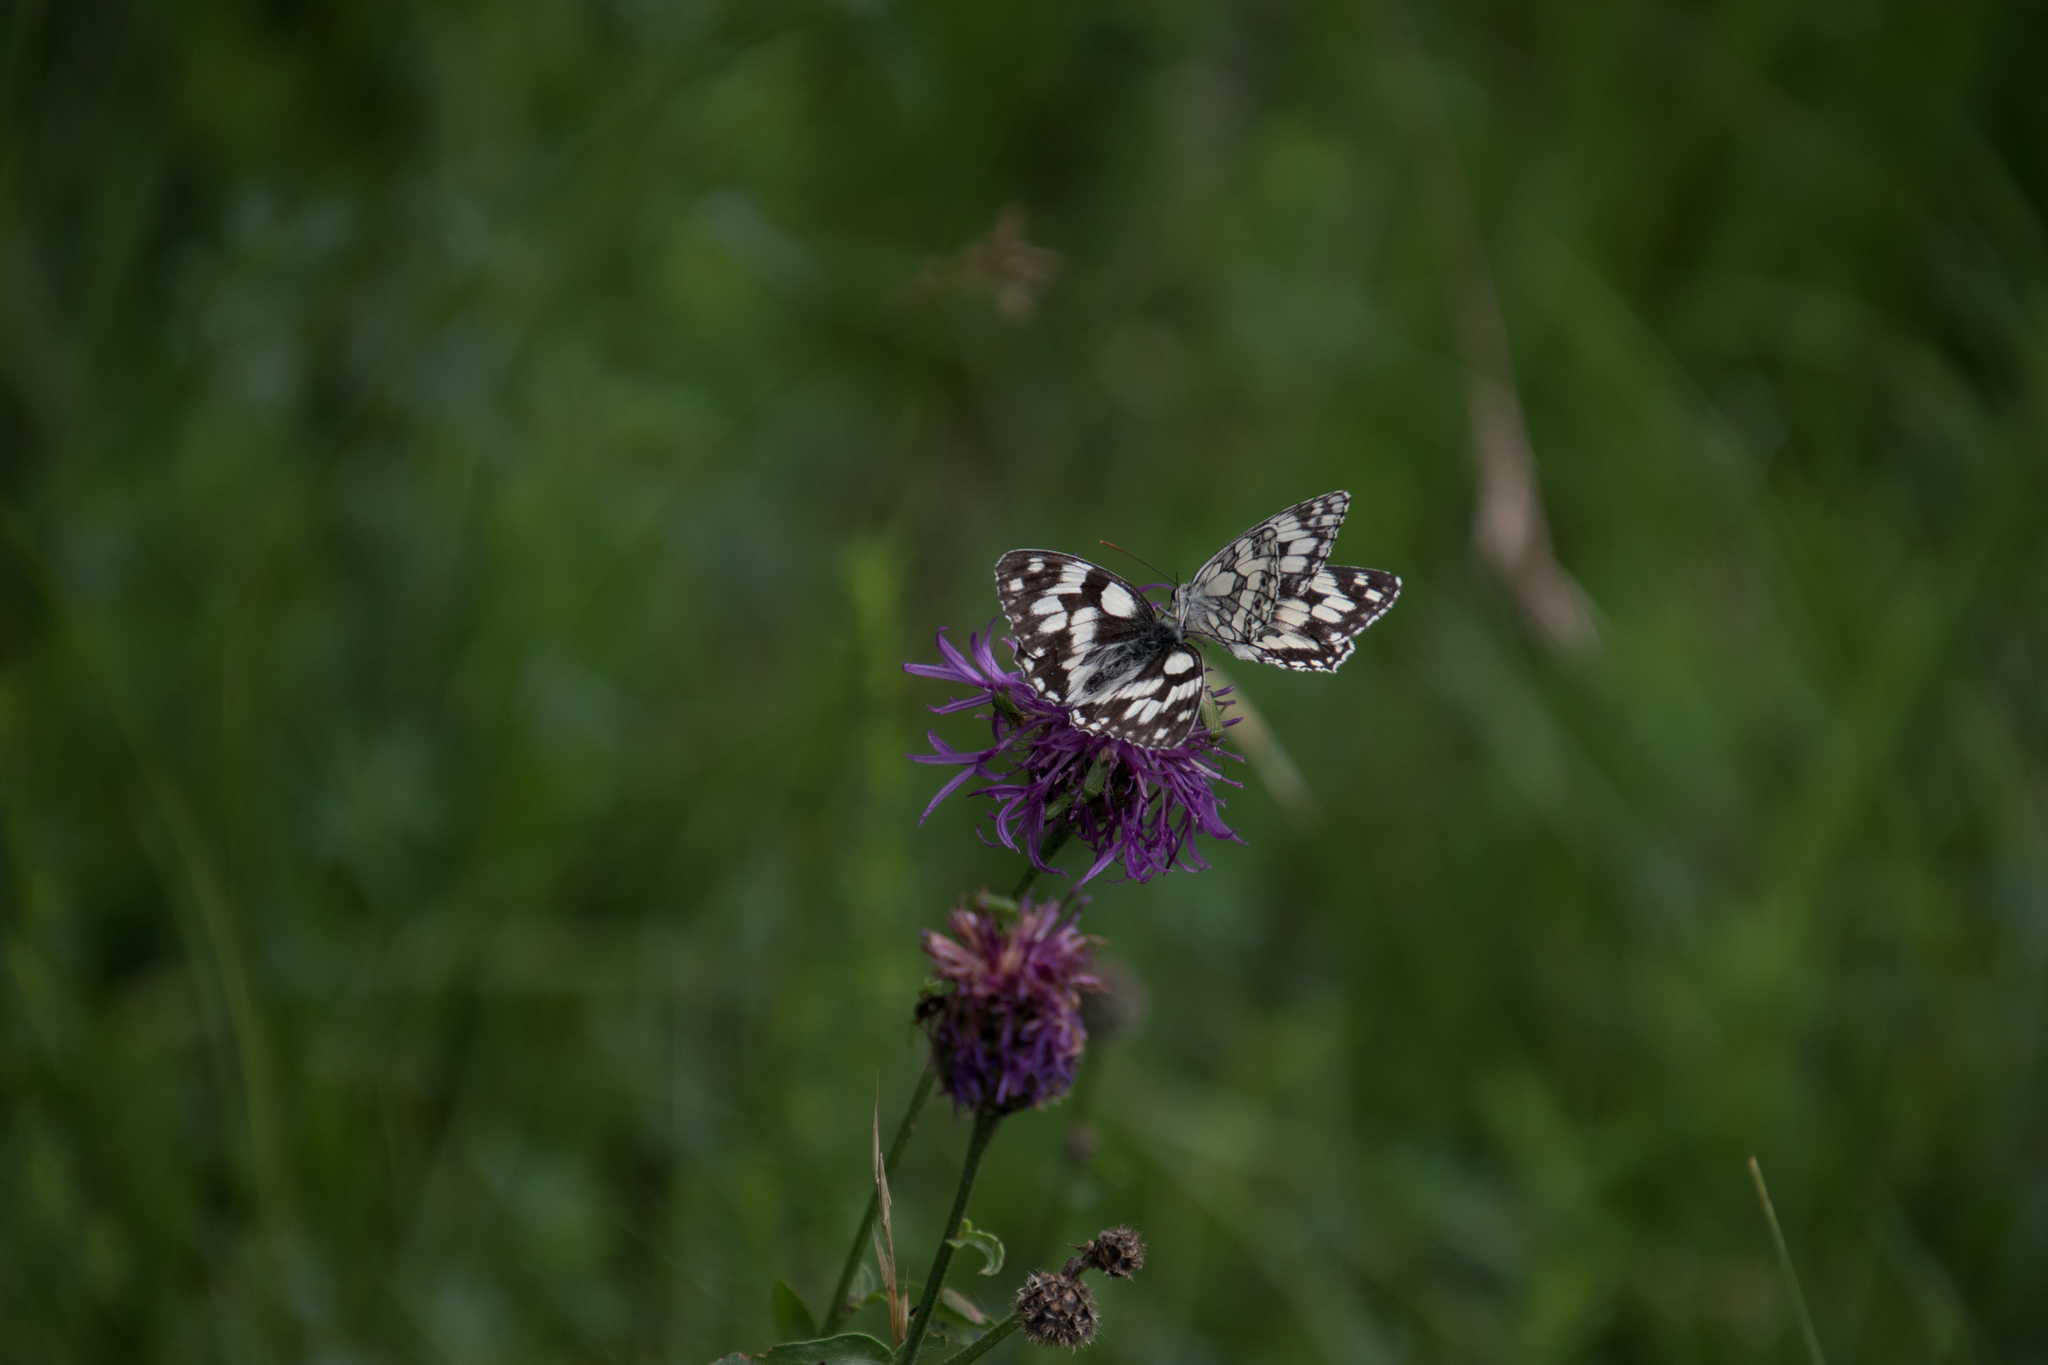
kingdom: Animalia
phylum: Arthropoda
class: Insecta
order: Lepidoptera
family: Nymphalidae
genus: Melanargia
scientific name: Melanargia galathea
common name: Marbled white
